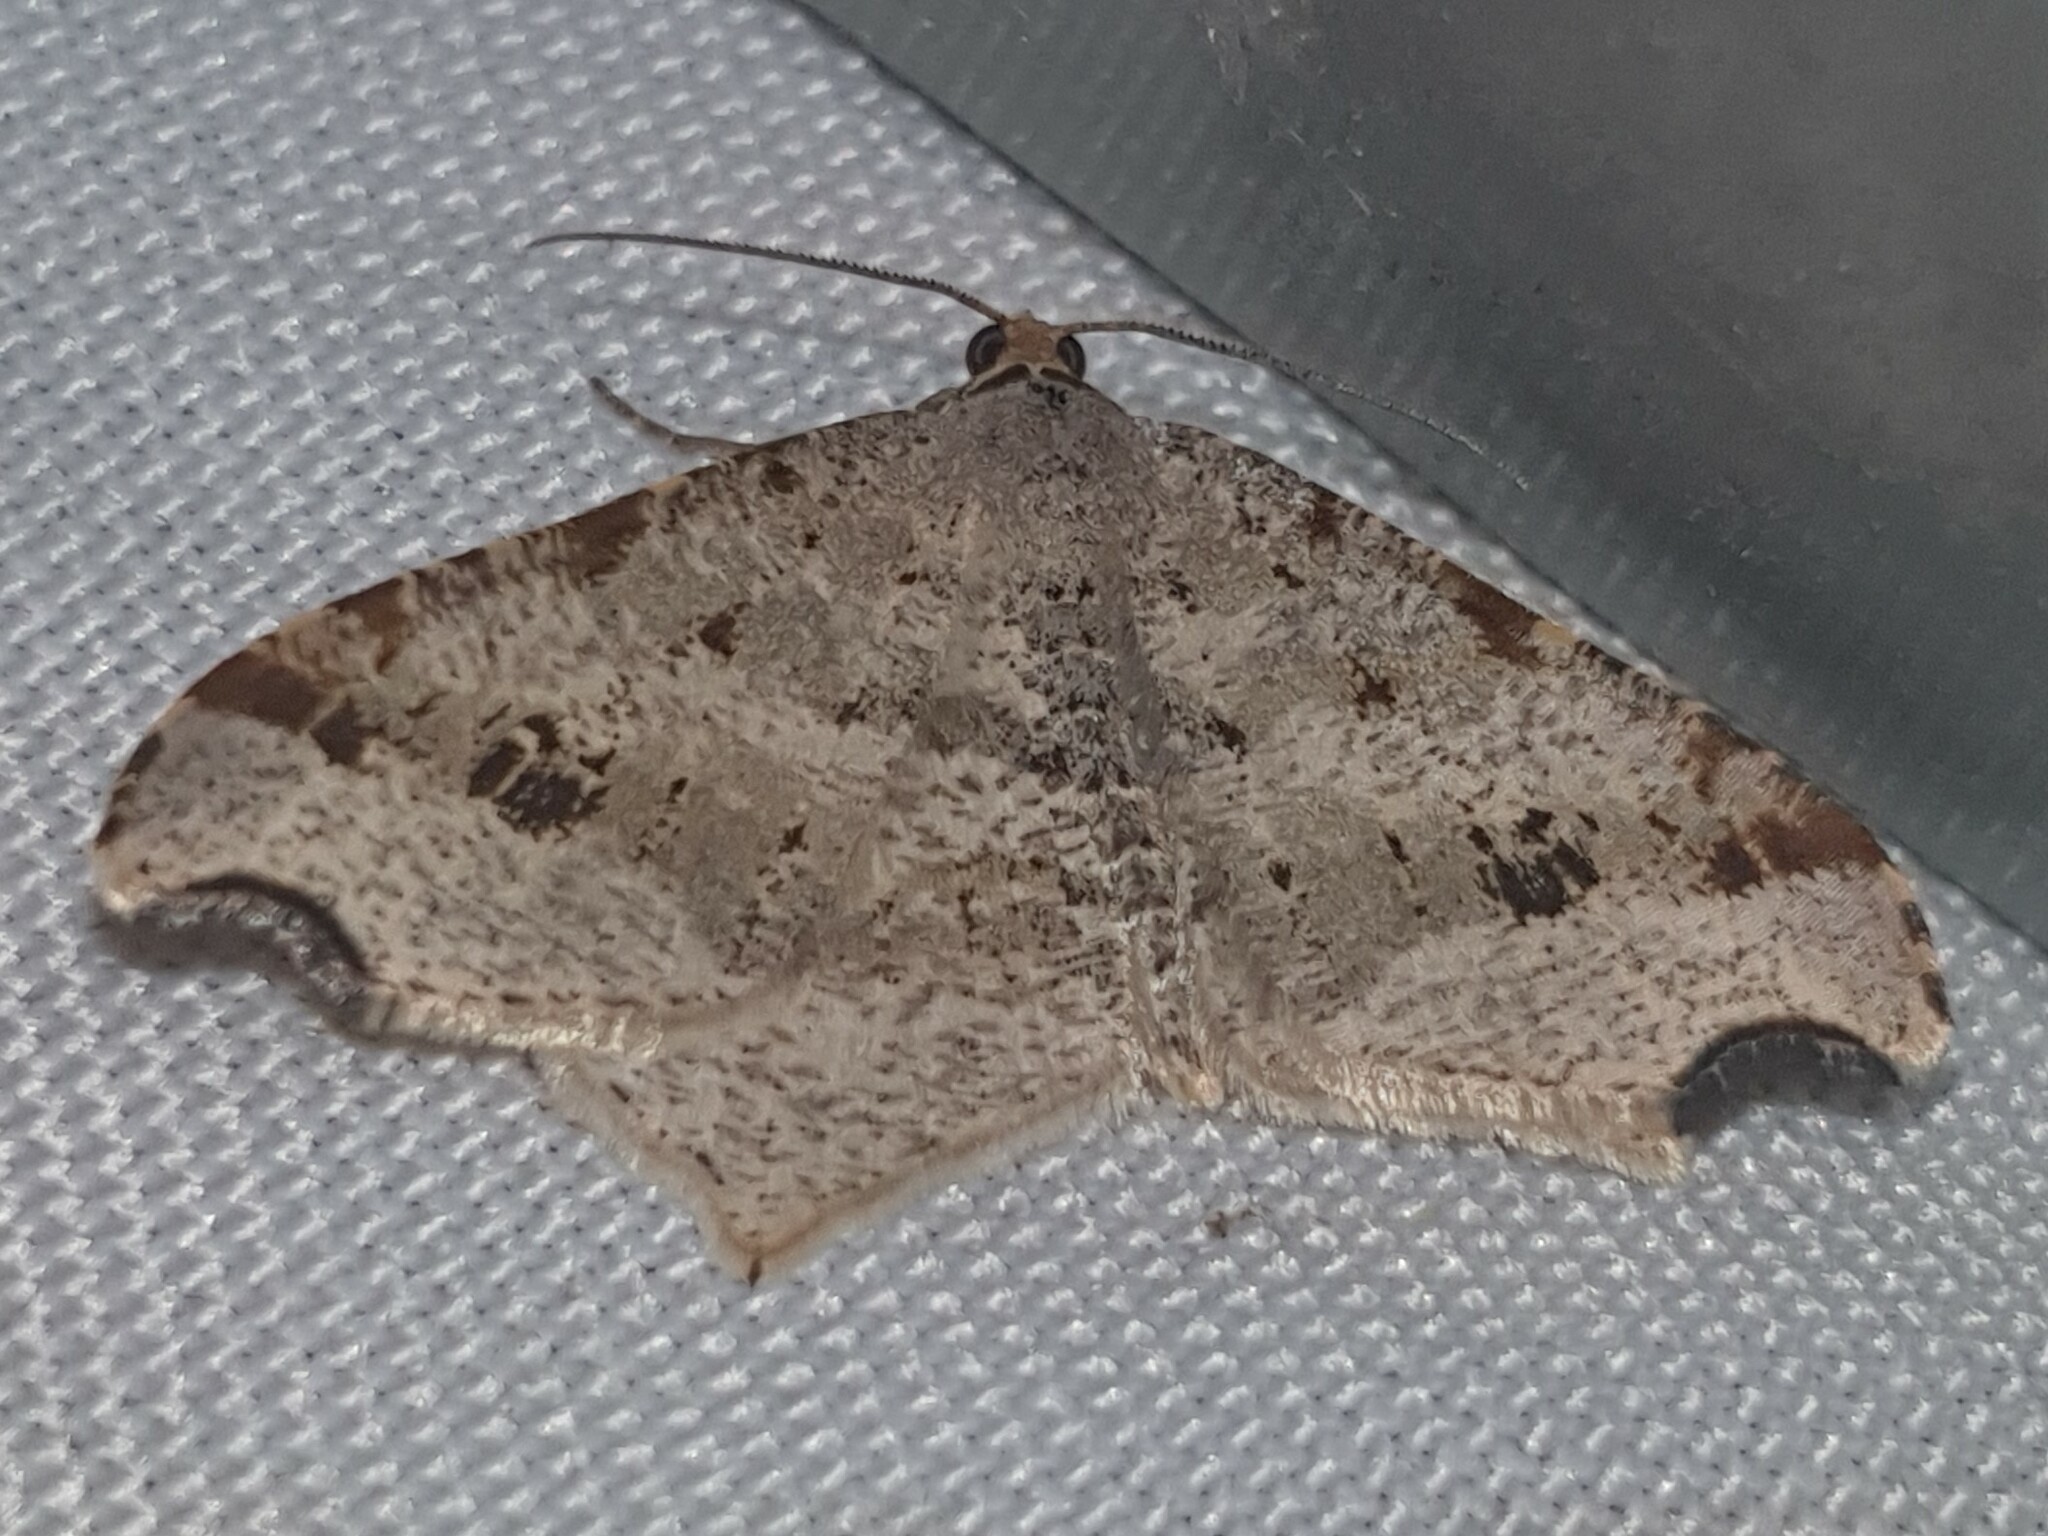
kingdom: Animalia
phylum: Arthropoda
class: Insecta
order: Lepidoptera
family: Geometridae
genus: Macaria
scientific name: Macaria alternata
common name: Sharp-angled peacock
